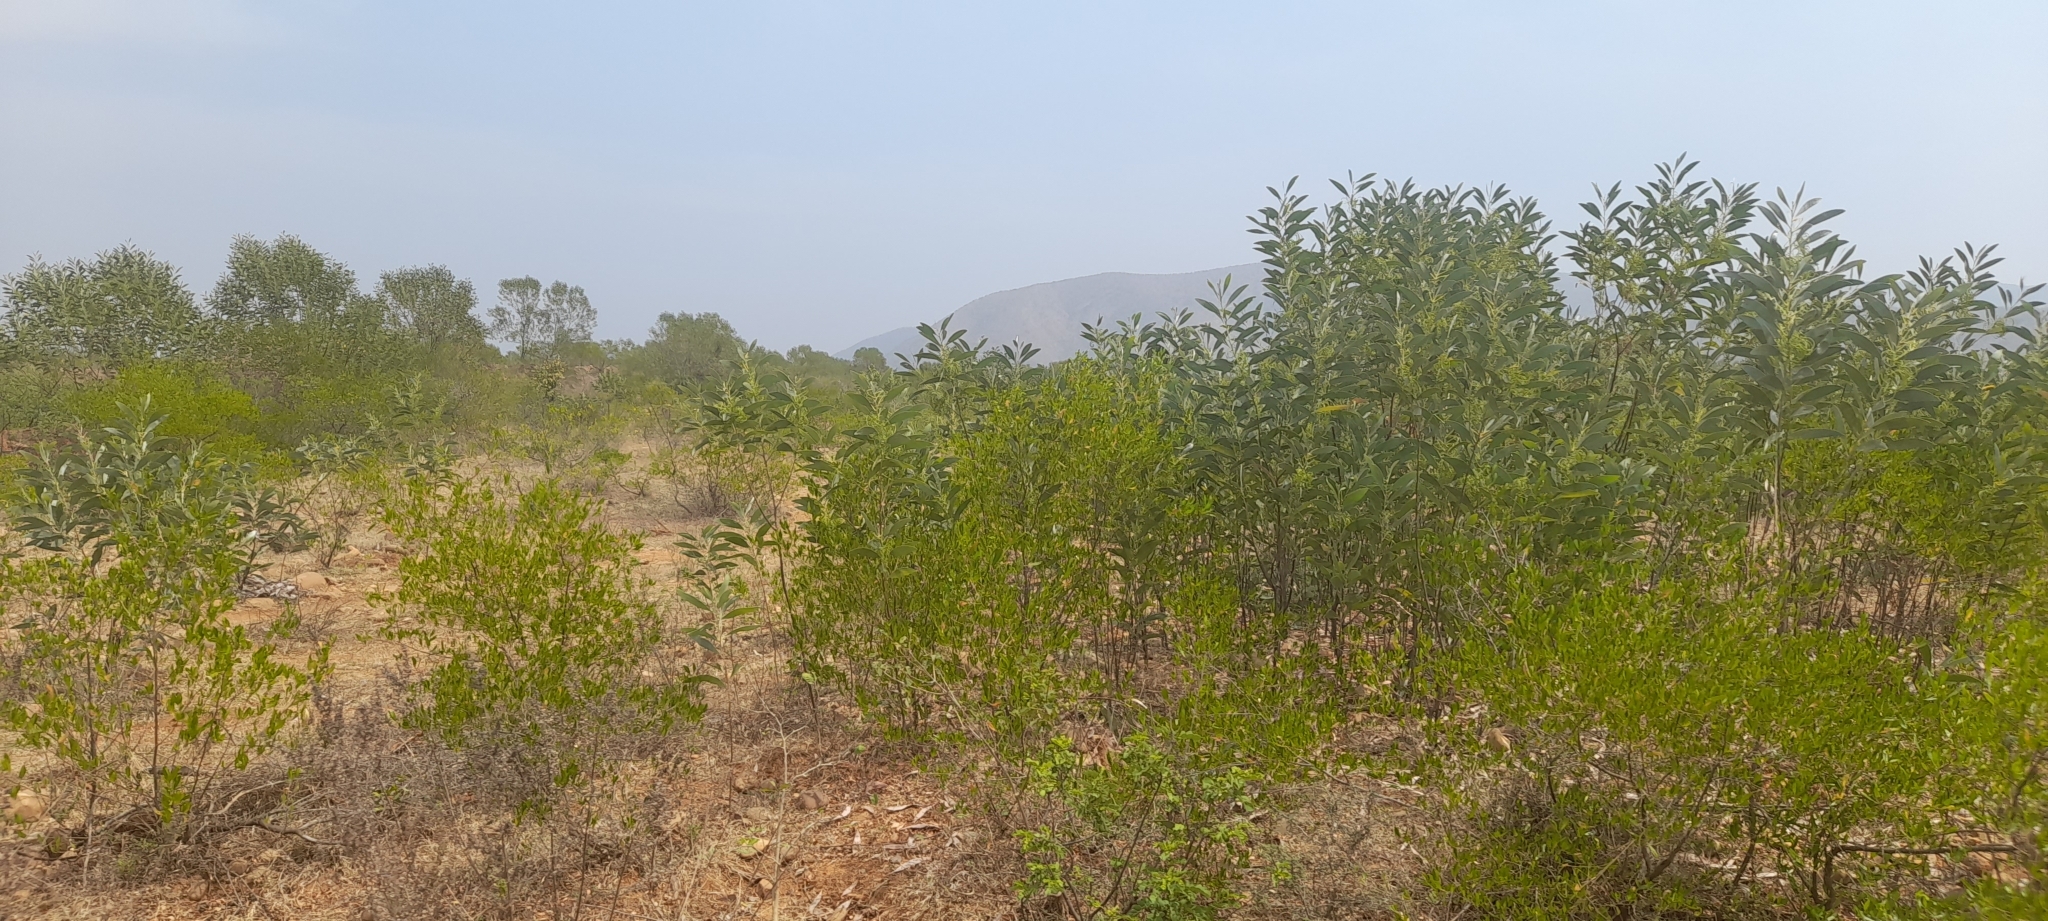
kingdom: Plantae
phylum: Tracheophyta
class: Magnoliopsida
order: Fabales
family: Fabaceae
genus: Acacia
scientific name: Acacia auriculiformis
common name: Earleaf acacia
